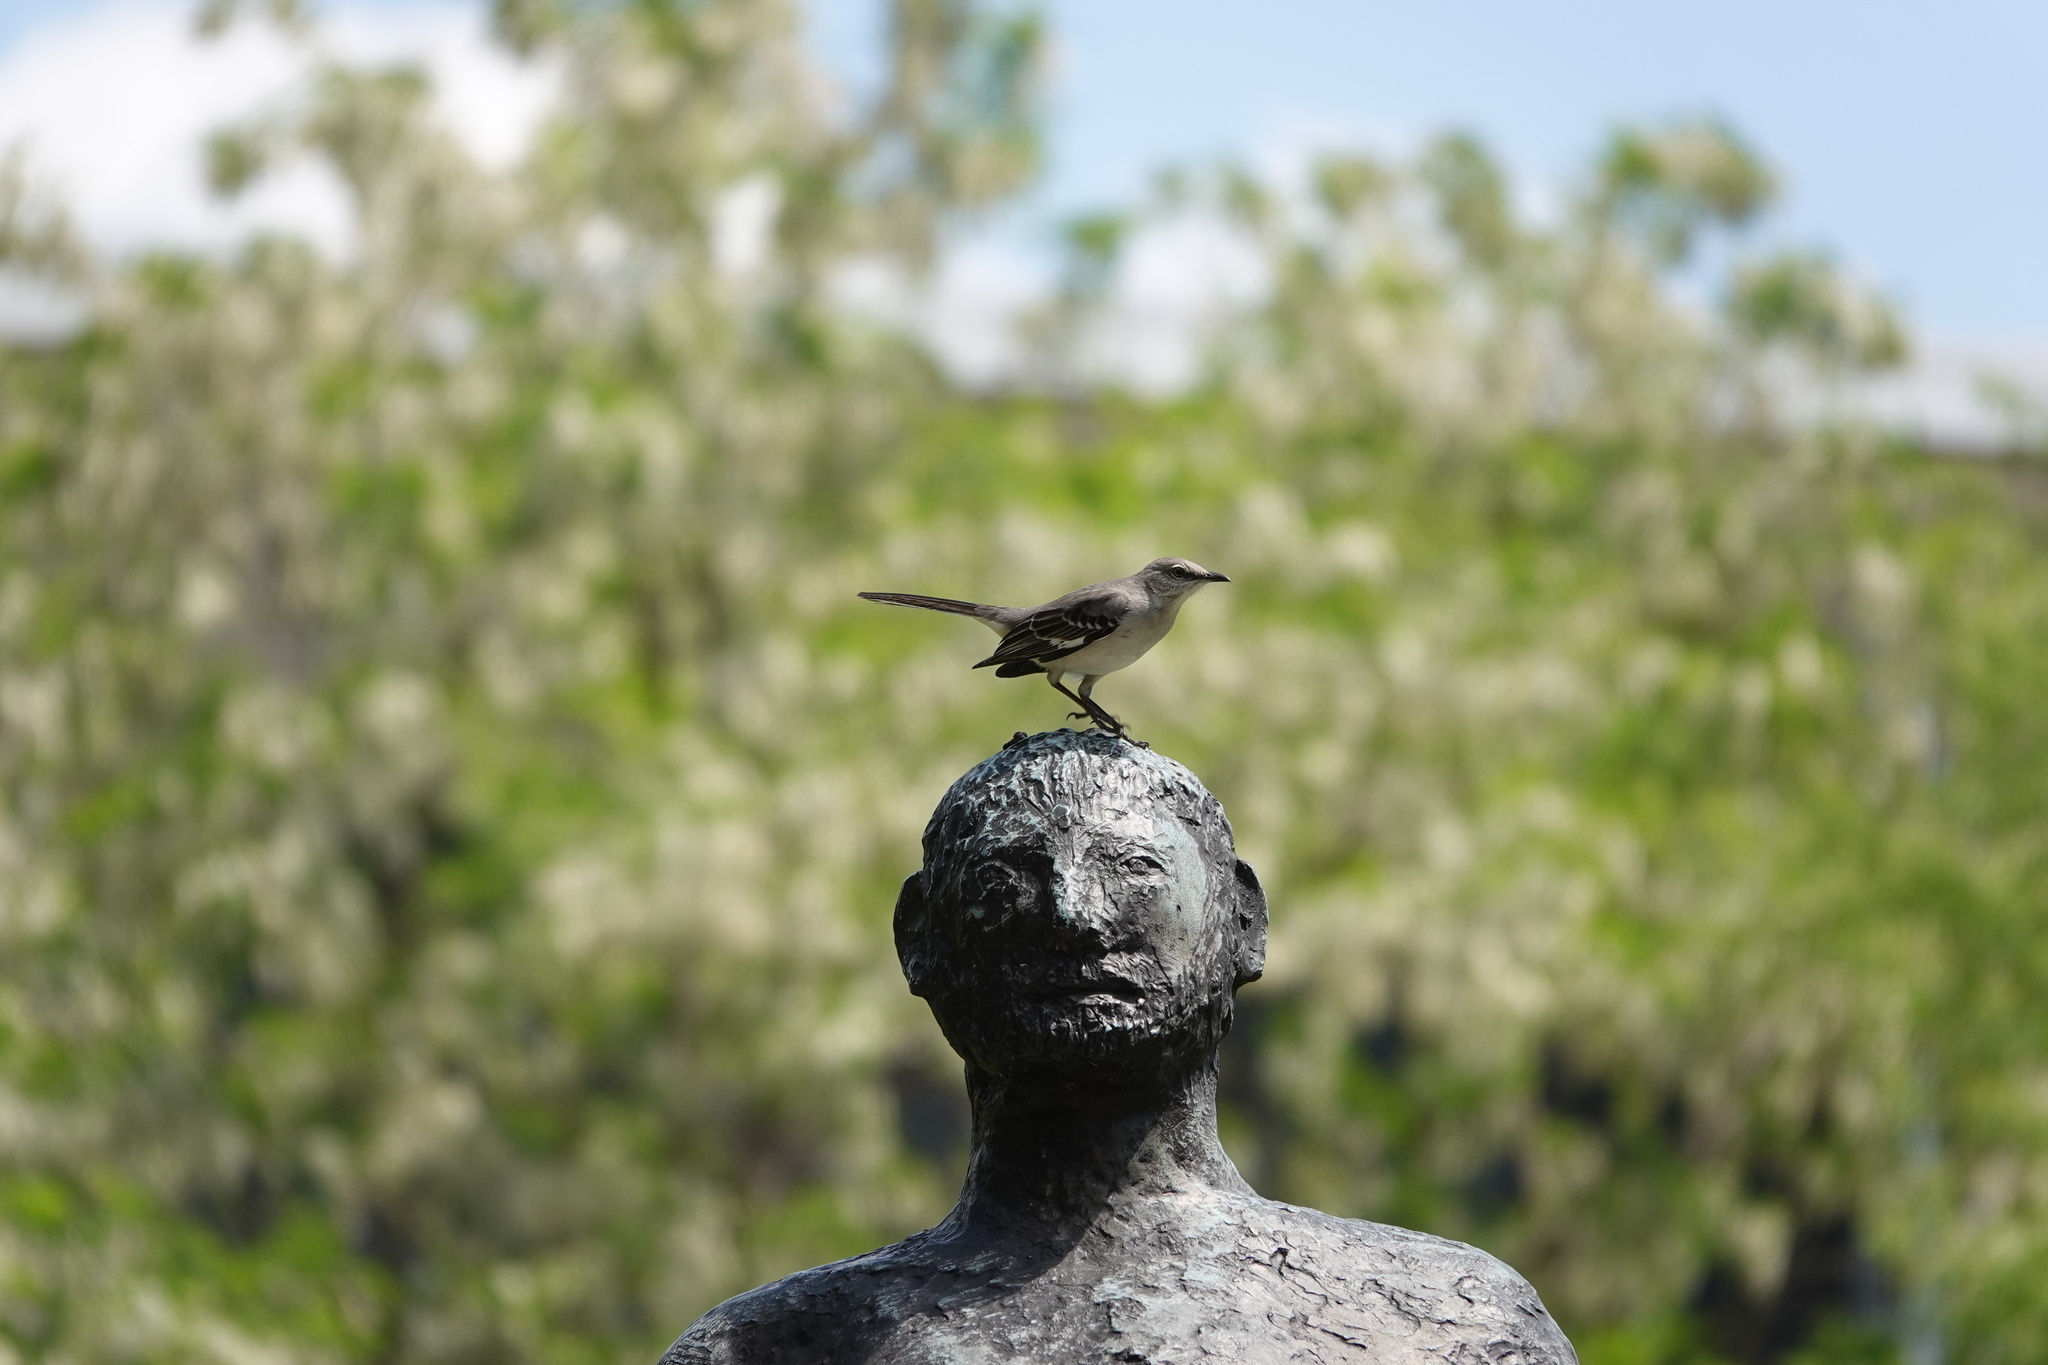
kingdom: Animalia
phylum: Chordata
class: Aves
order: Passeriformes
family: Mimidae
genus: Mimus
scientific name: Mimus polyglottos
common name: Northern mockingbird
